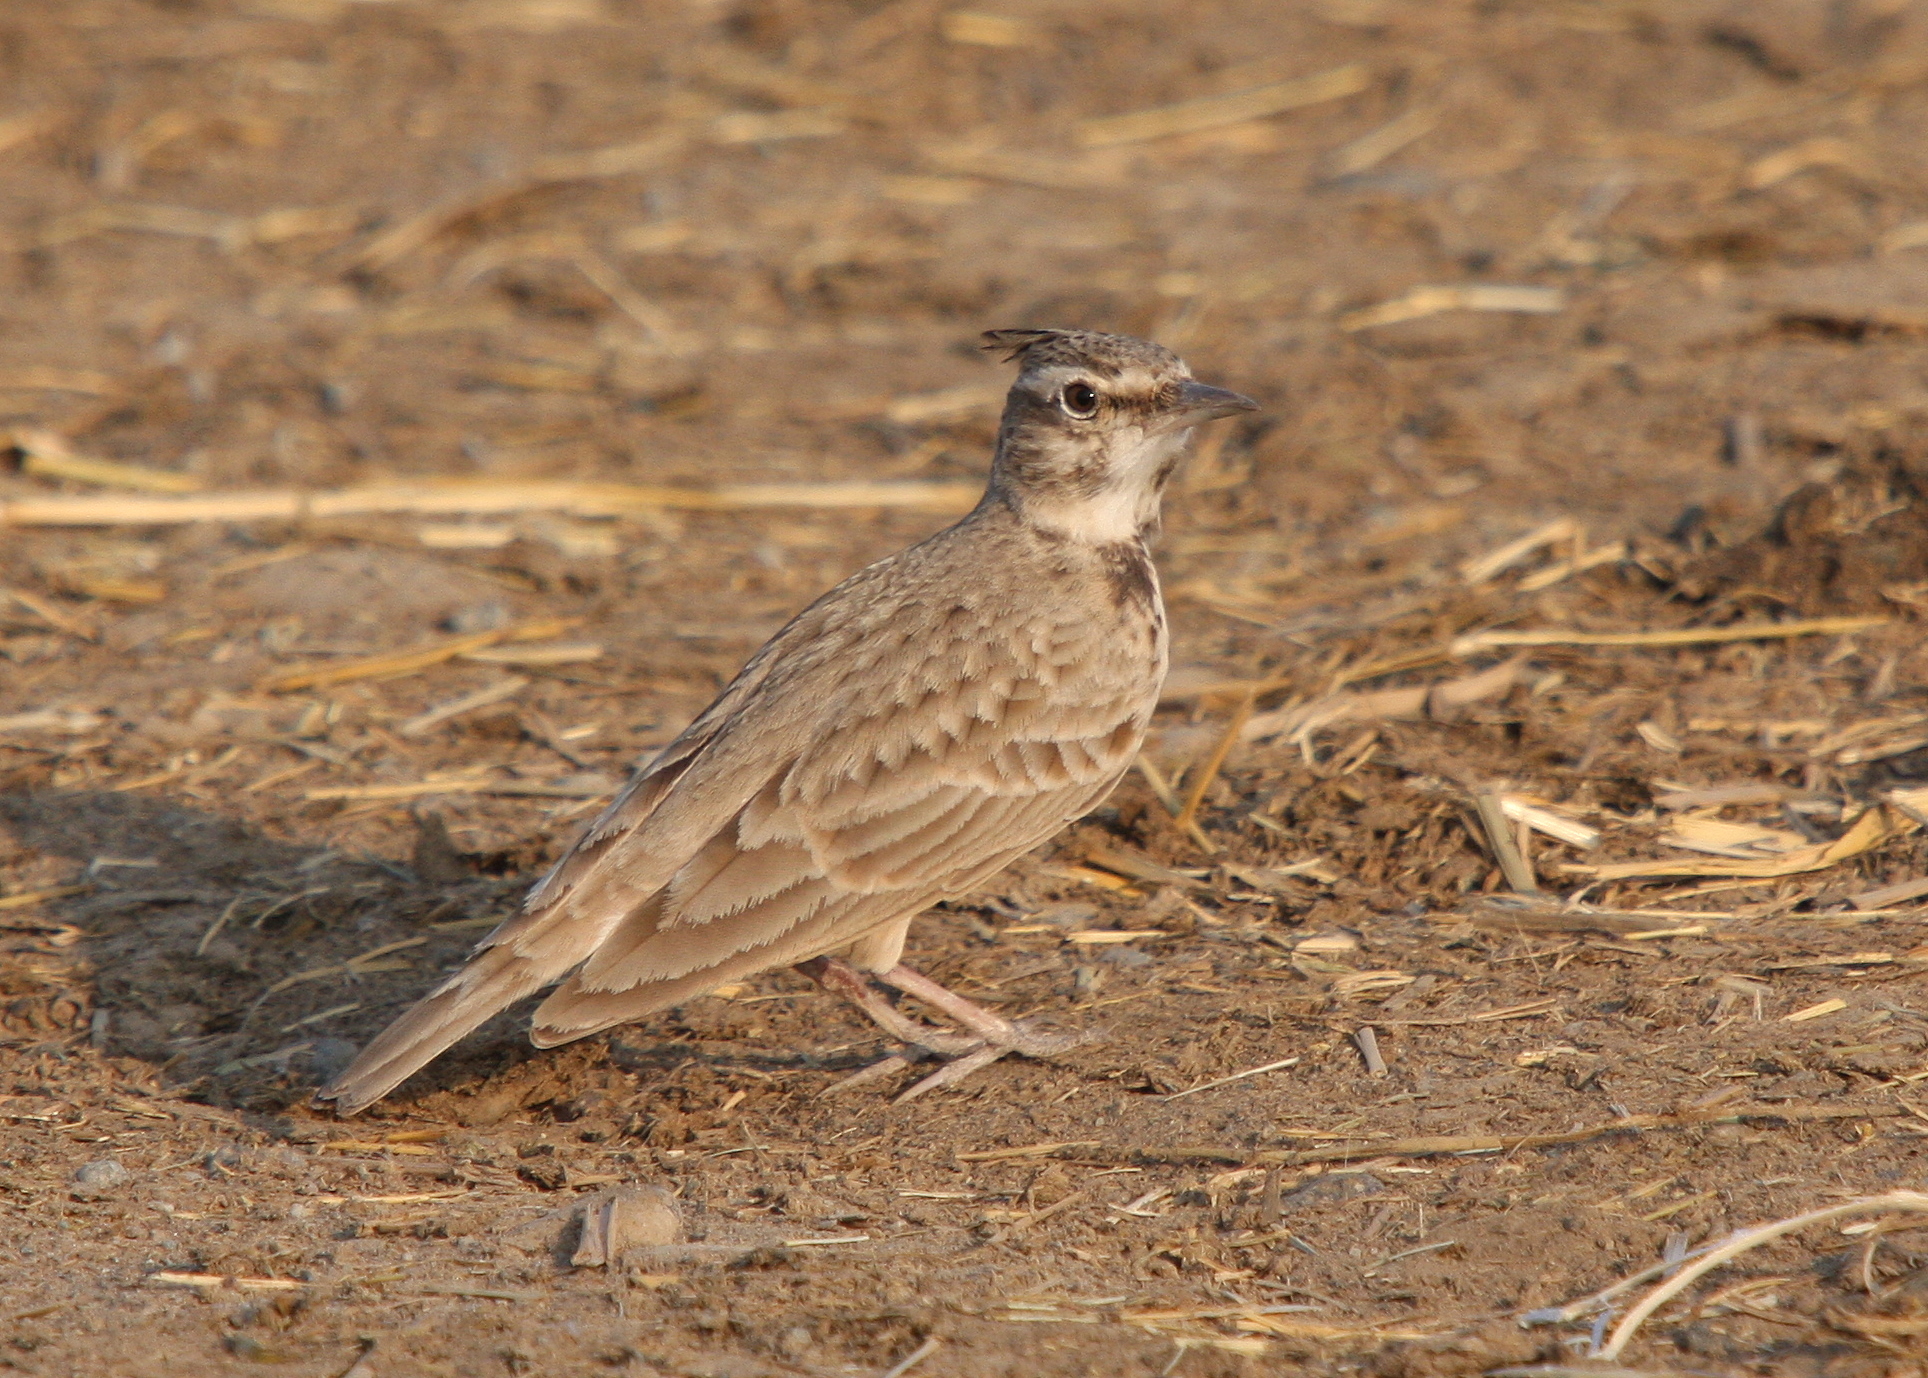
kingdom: Animalia
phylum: Chordata
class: Aves
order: Passeriformes
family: Alaudidae
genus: Galerida
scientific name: Galerida cristata
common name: Crested lark
